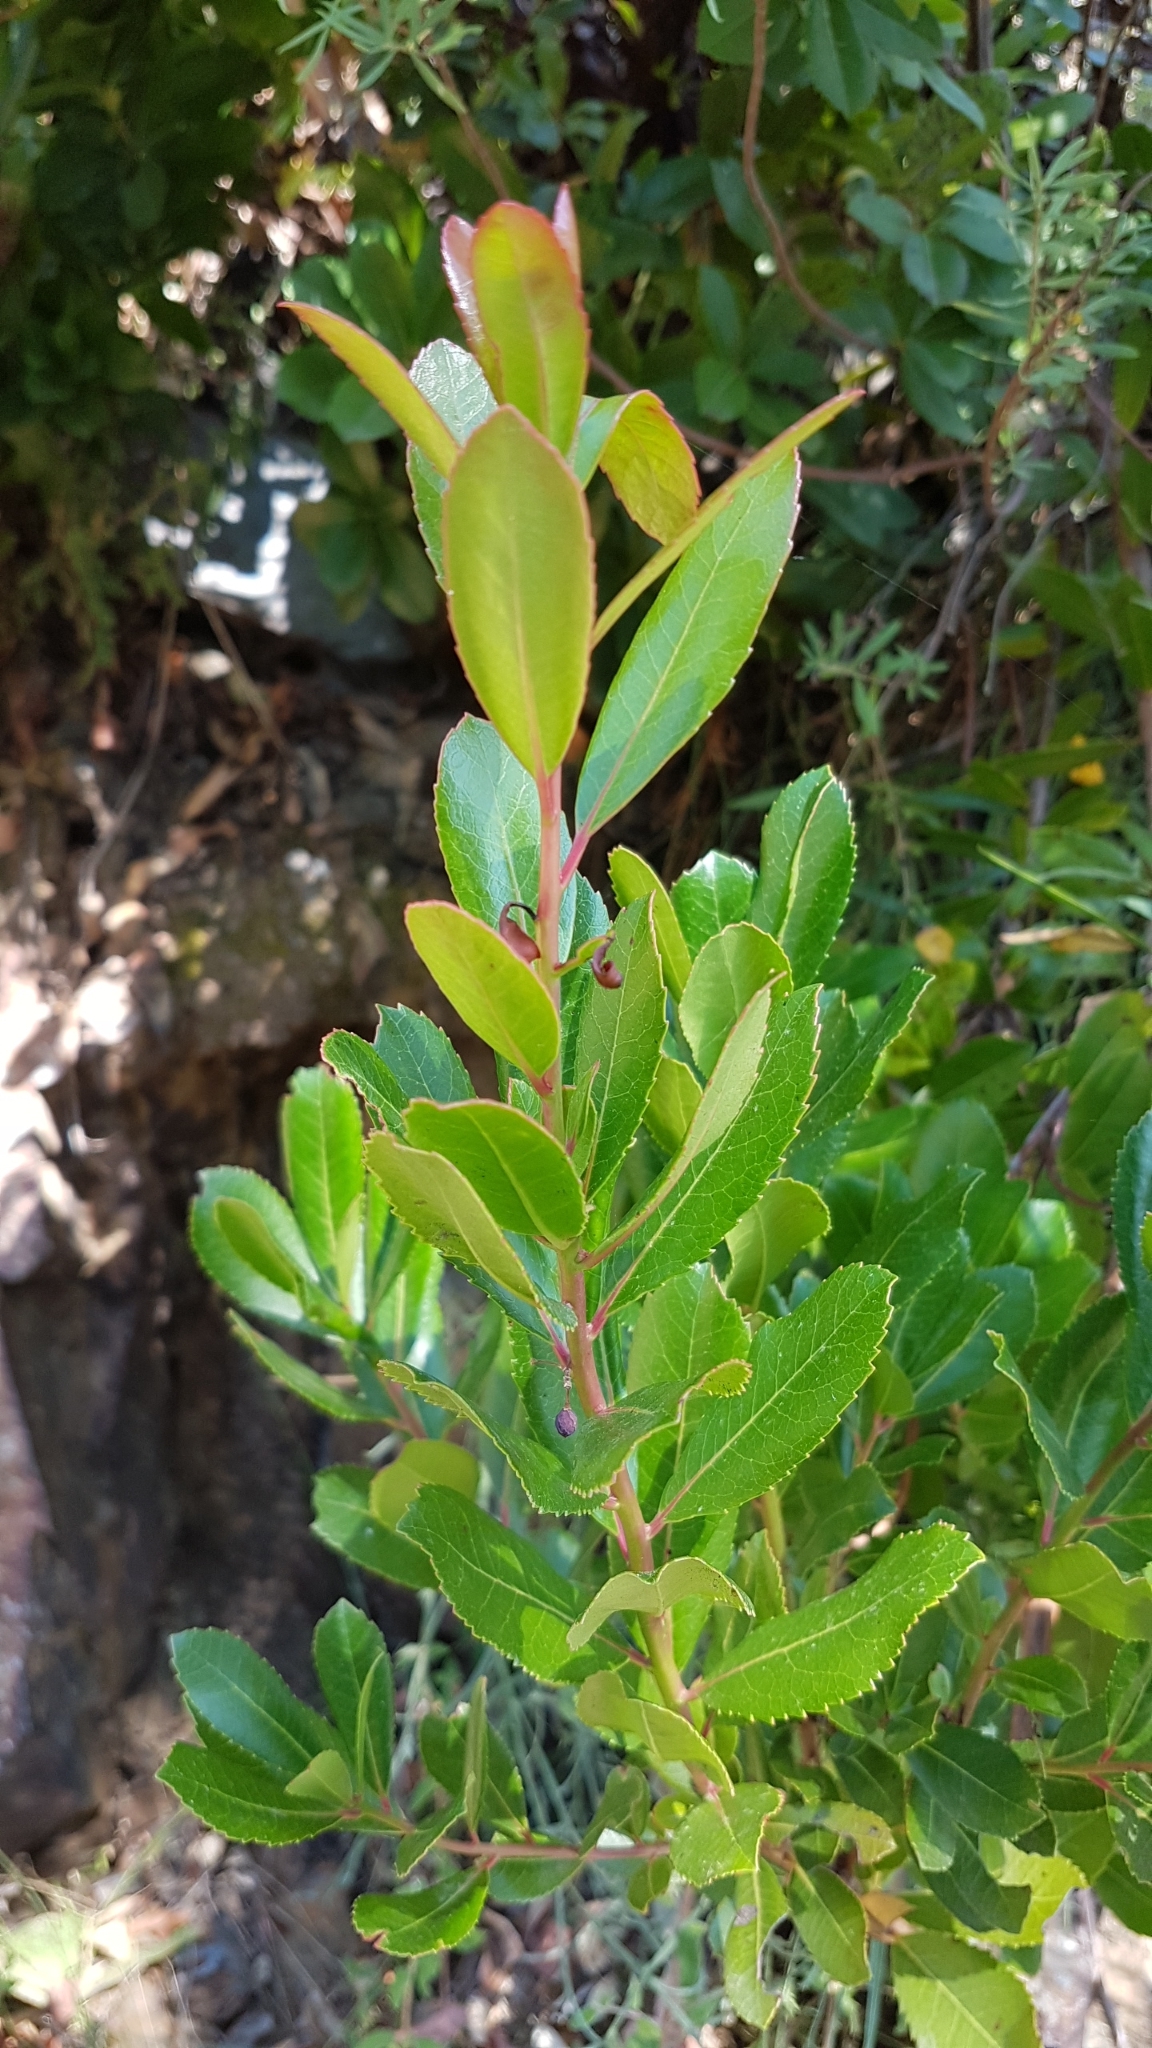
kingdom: Plantae
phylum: Tracheophyta
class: Magnoliopsida
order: Ericales
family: Ericaceae
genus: Arbutus
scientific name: Arbutus unedo
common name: Strawberry-tree
